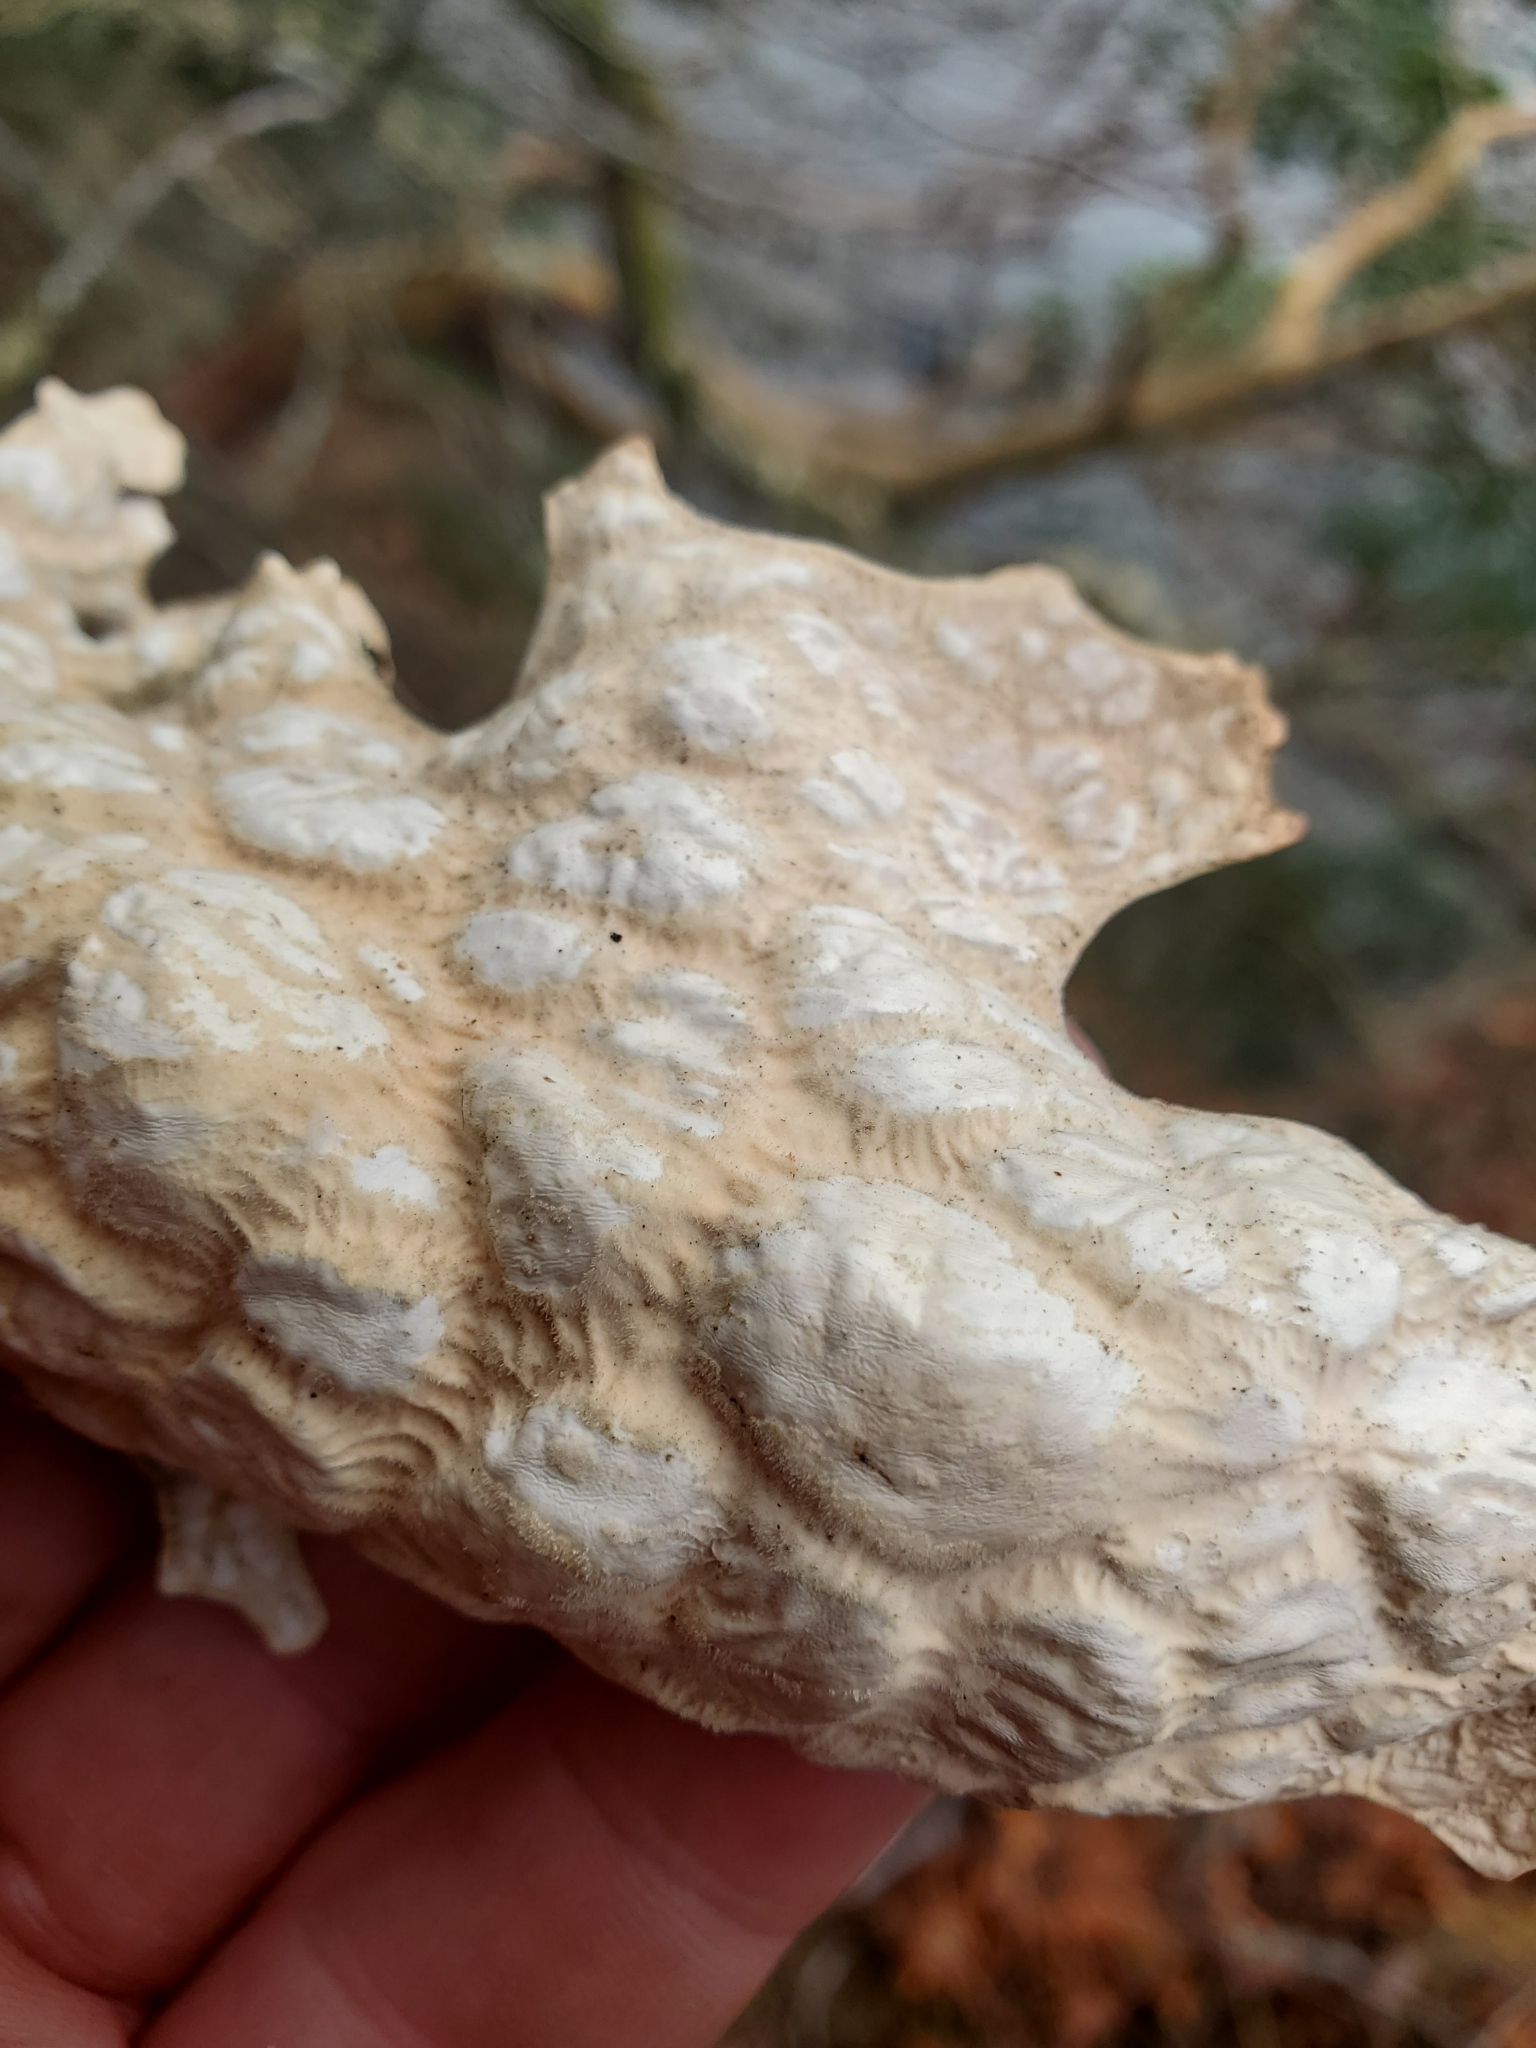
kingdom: Fungi
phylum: Ascomycota
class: Lecanoromycetes
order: Peltigerales
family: Lobariaceae
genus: Lobaria
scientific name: Lobaria pulmonaria
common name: Lungwort
